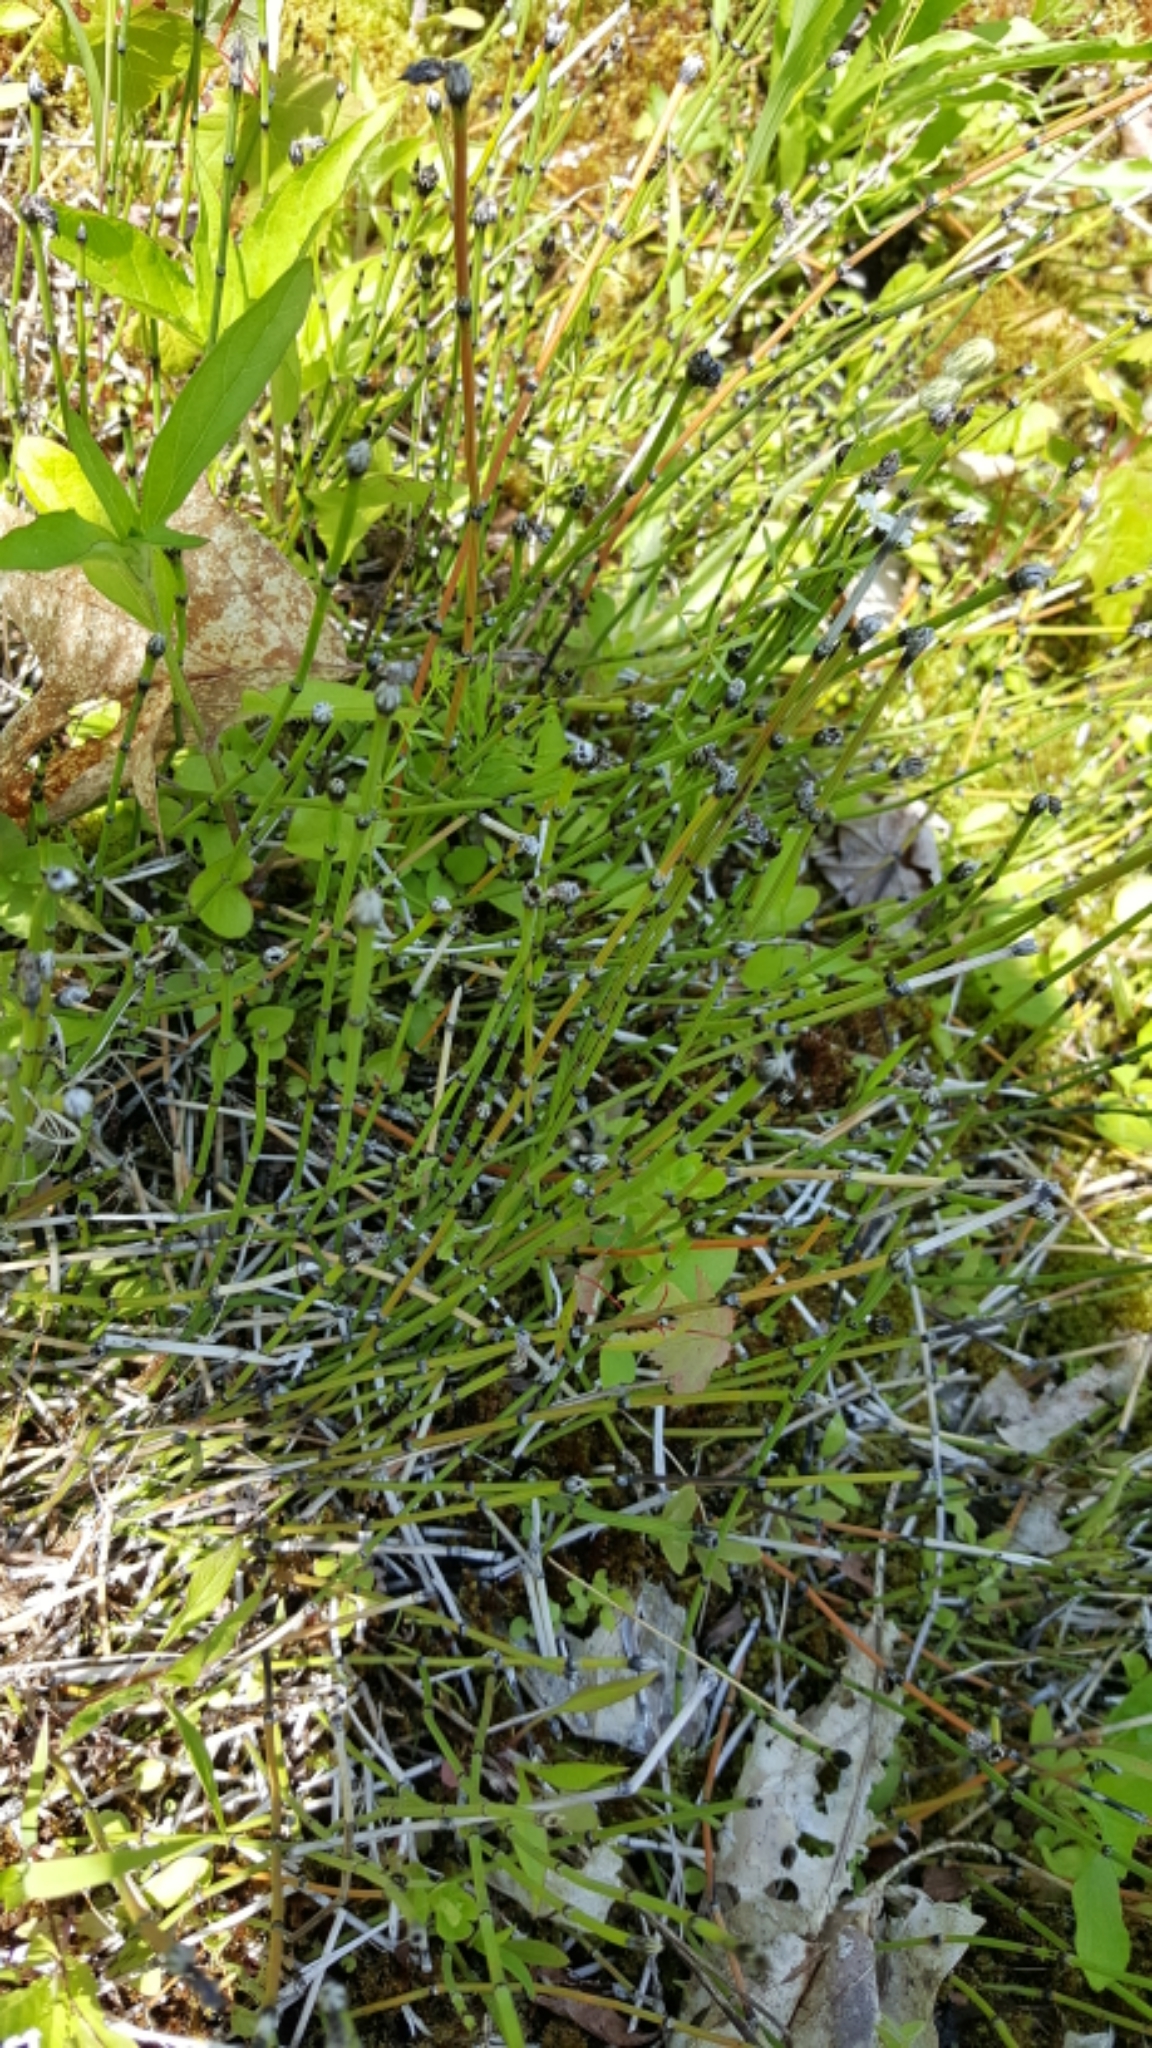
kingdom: Plantae
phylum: Tracheophyta
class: Polypodiopsida
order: Equisetales
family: Equisetaceae
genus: Equisetum
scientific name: Equisetum variegatum
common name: Variegated horsetail
